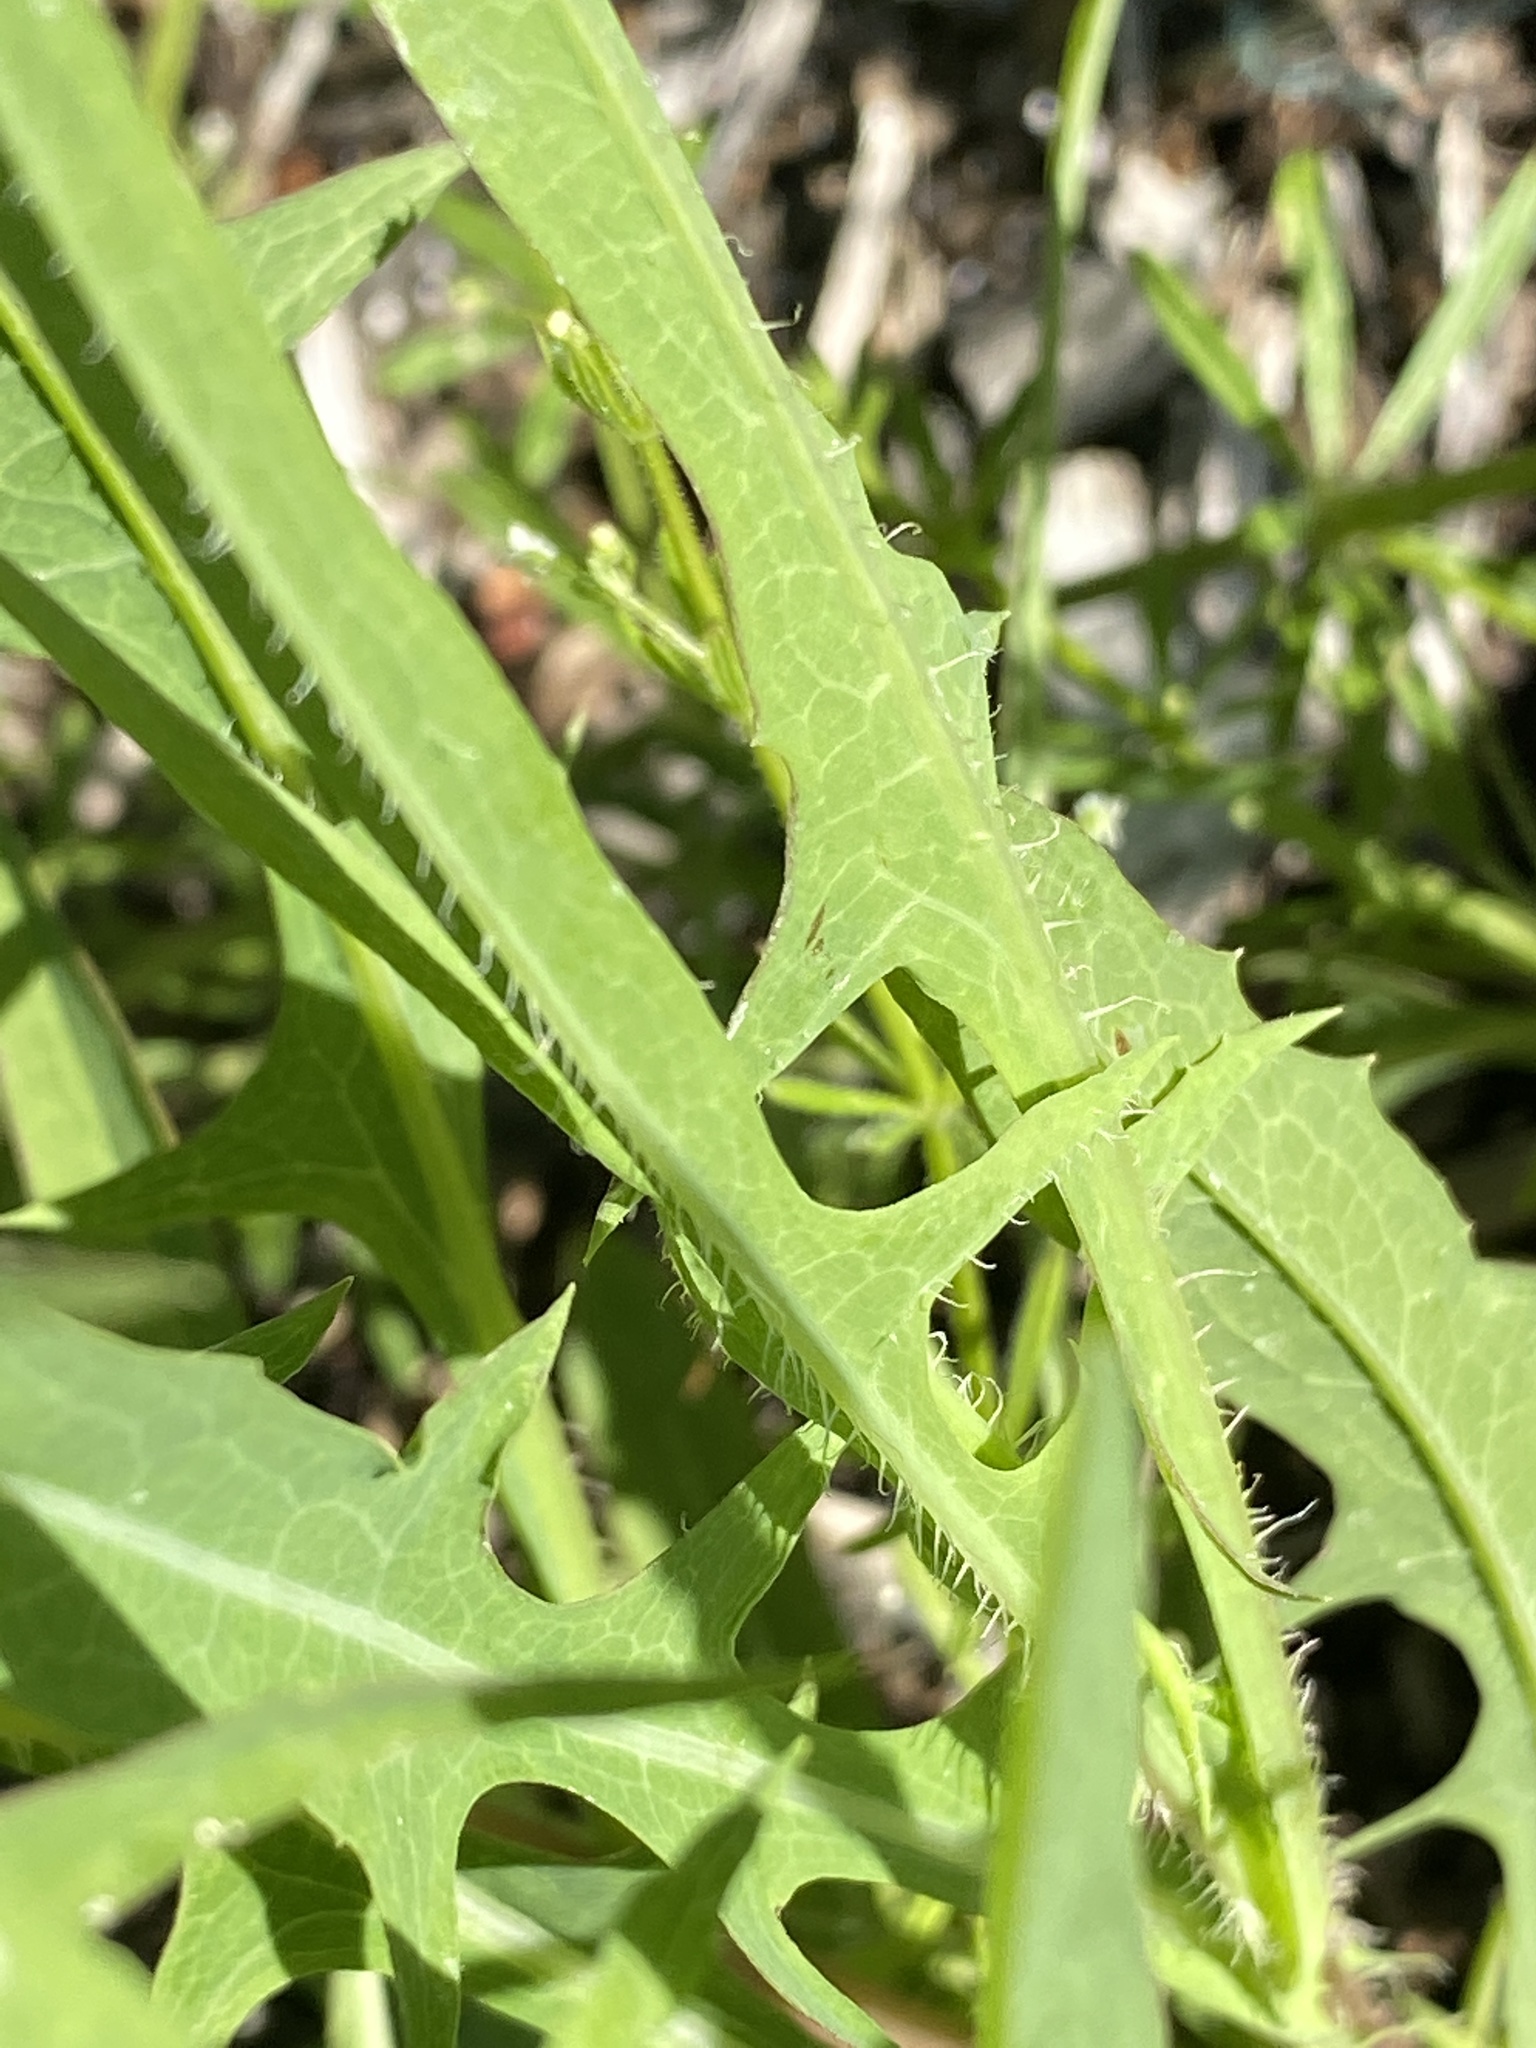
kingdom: Plantae
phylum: Tracheophyta
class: Magnoliopsida
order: Asterales
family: Asteraceae
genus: Lactuca
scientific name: Lactuca serriola
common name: Prickly lettuce
